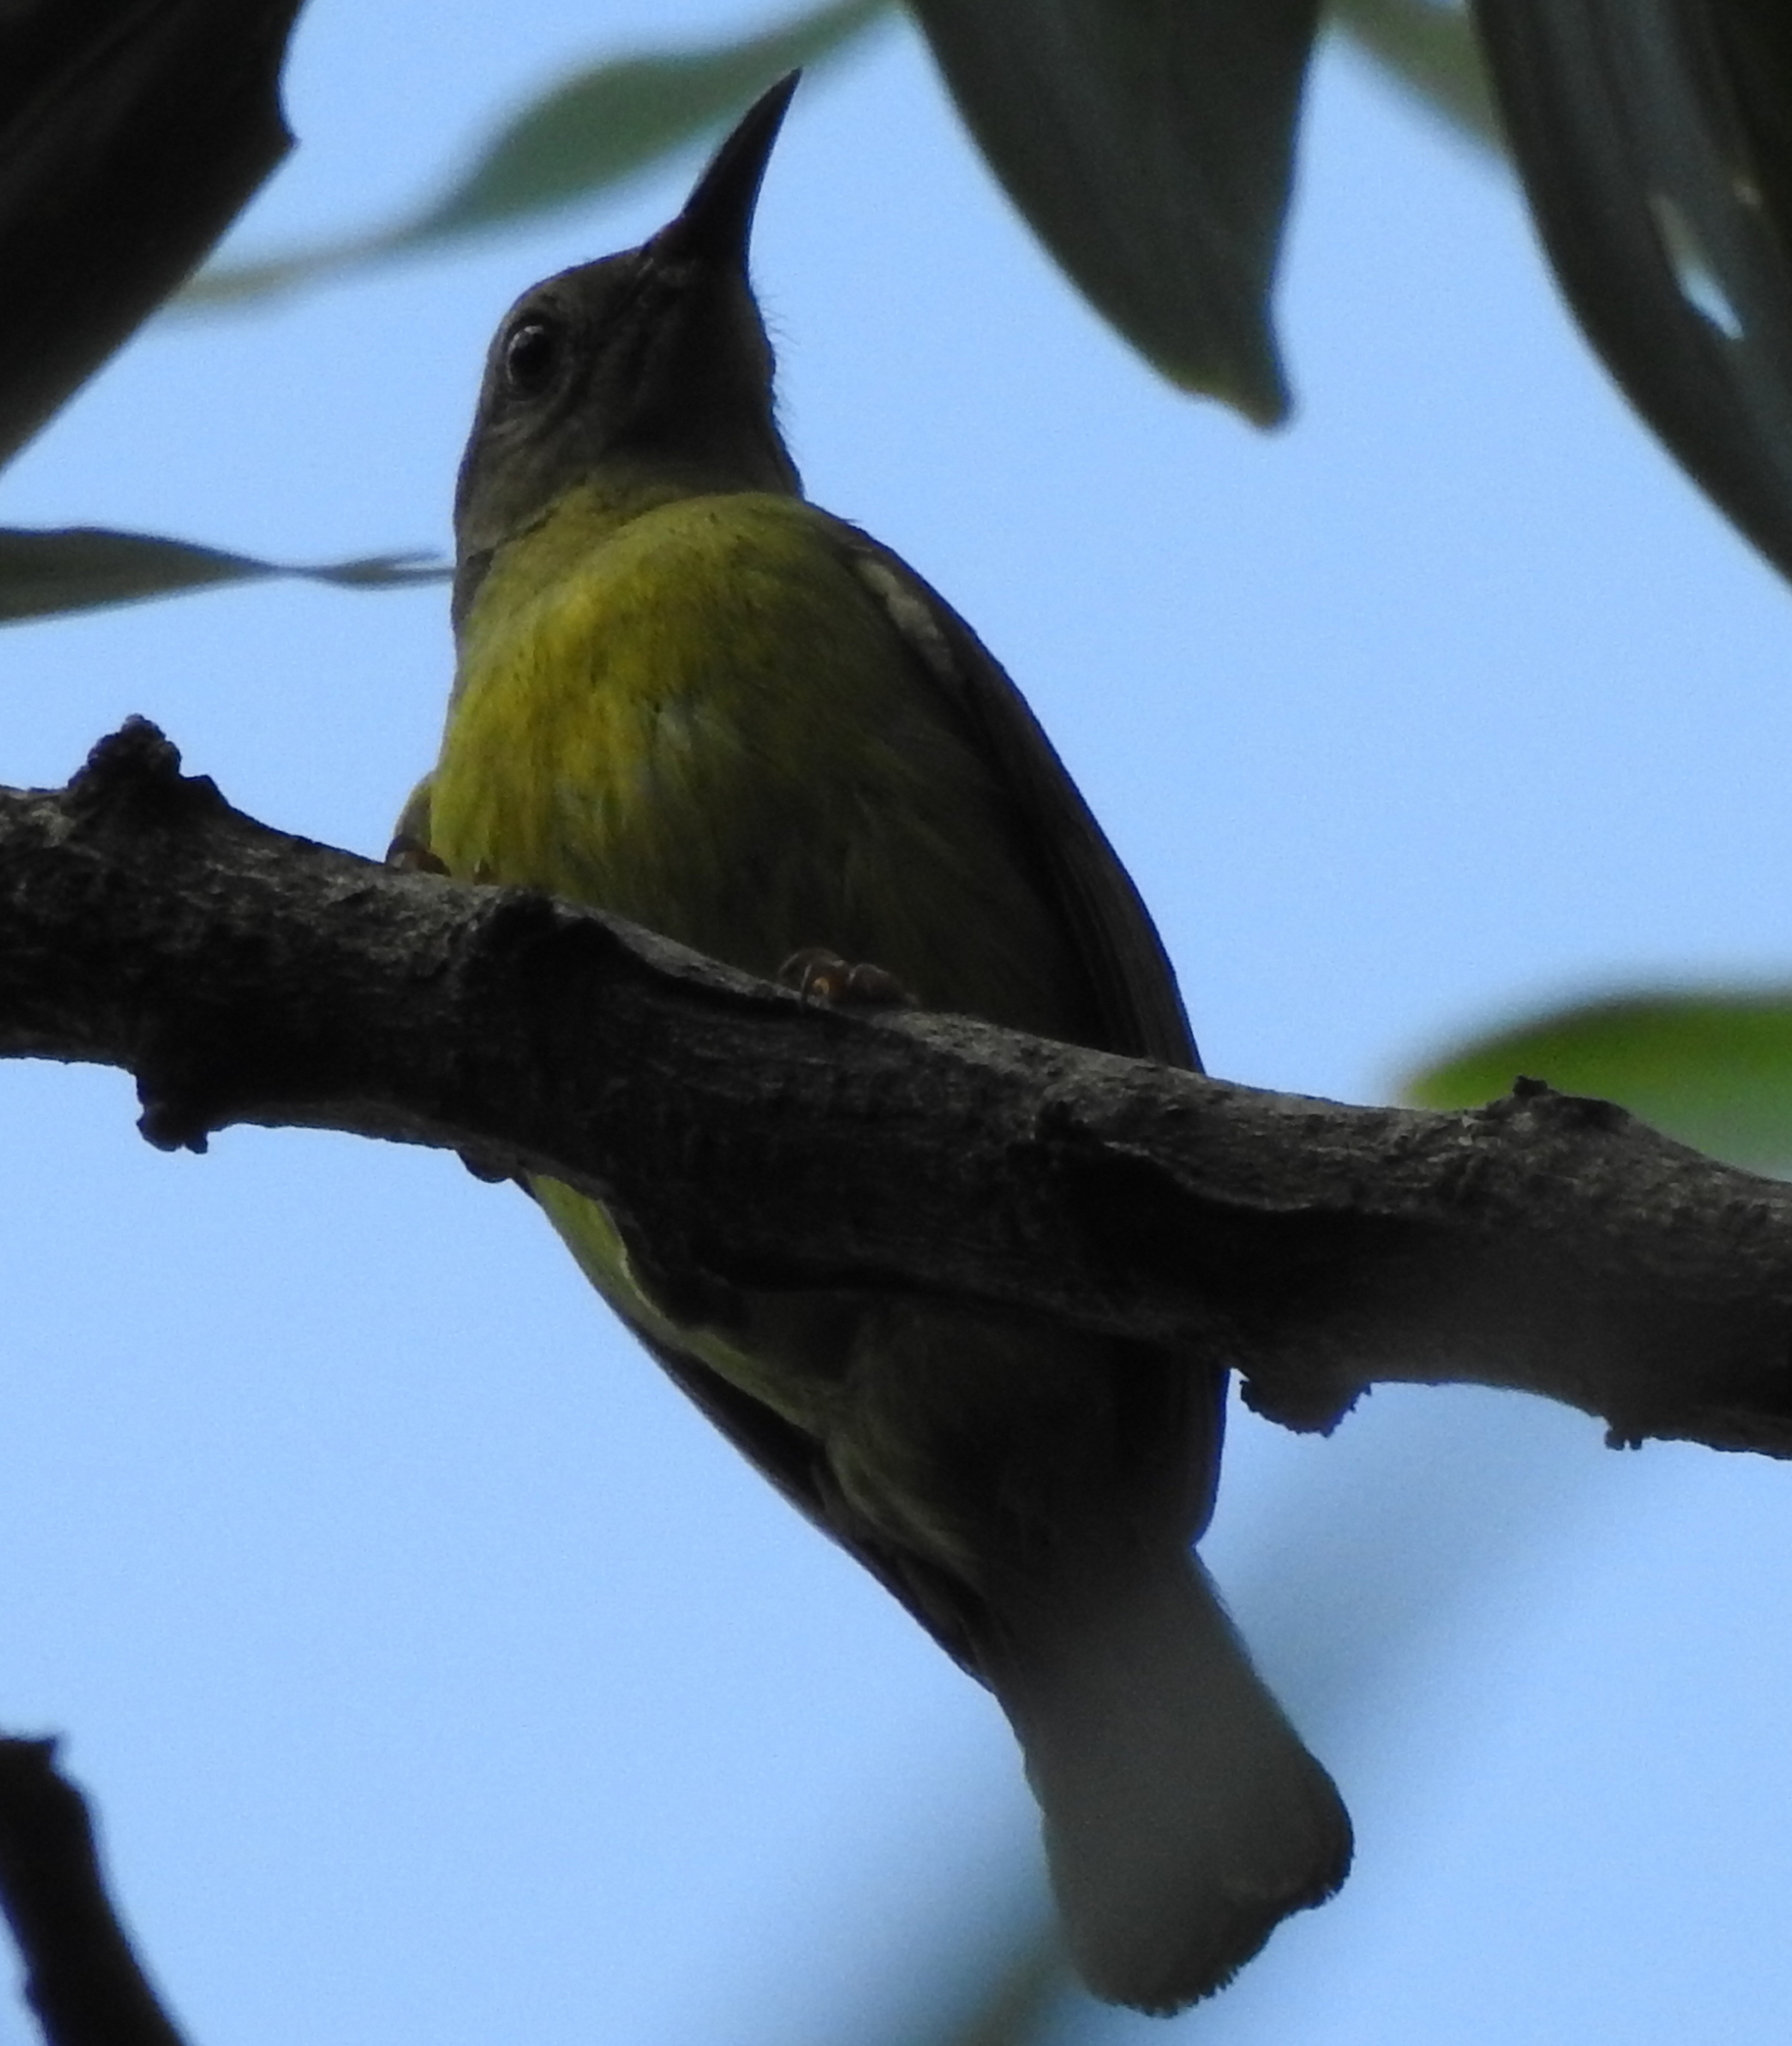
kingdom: Animalia
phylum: Chordata
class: Aves
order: Passeriformes
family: Nectariniidae
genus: Anthreptes
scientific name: Anthreptes malacensis
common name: Brown-throated sunbird
